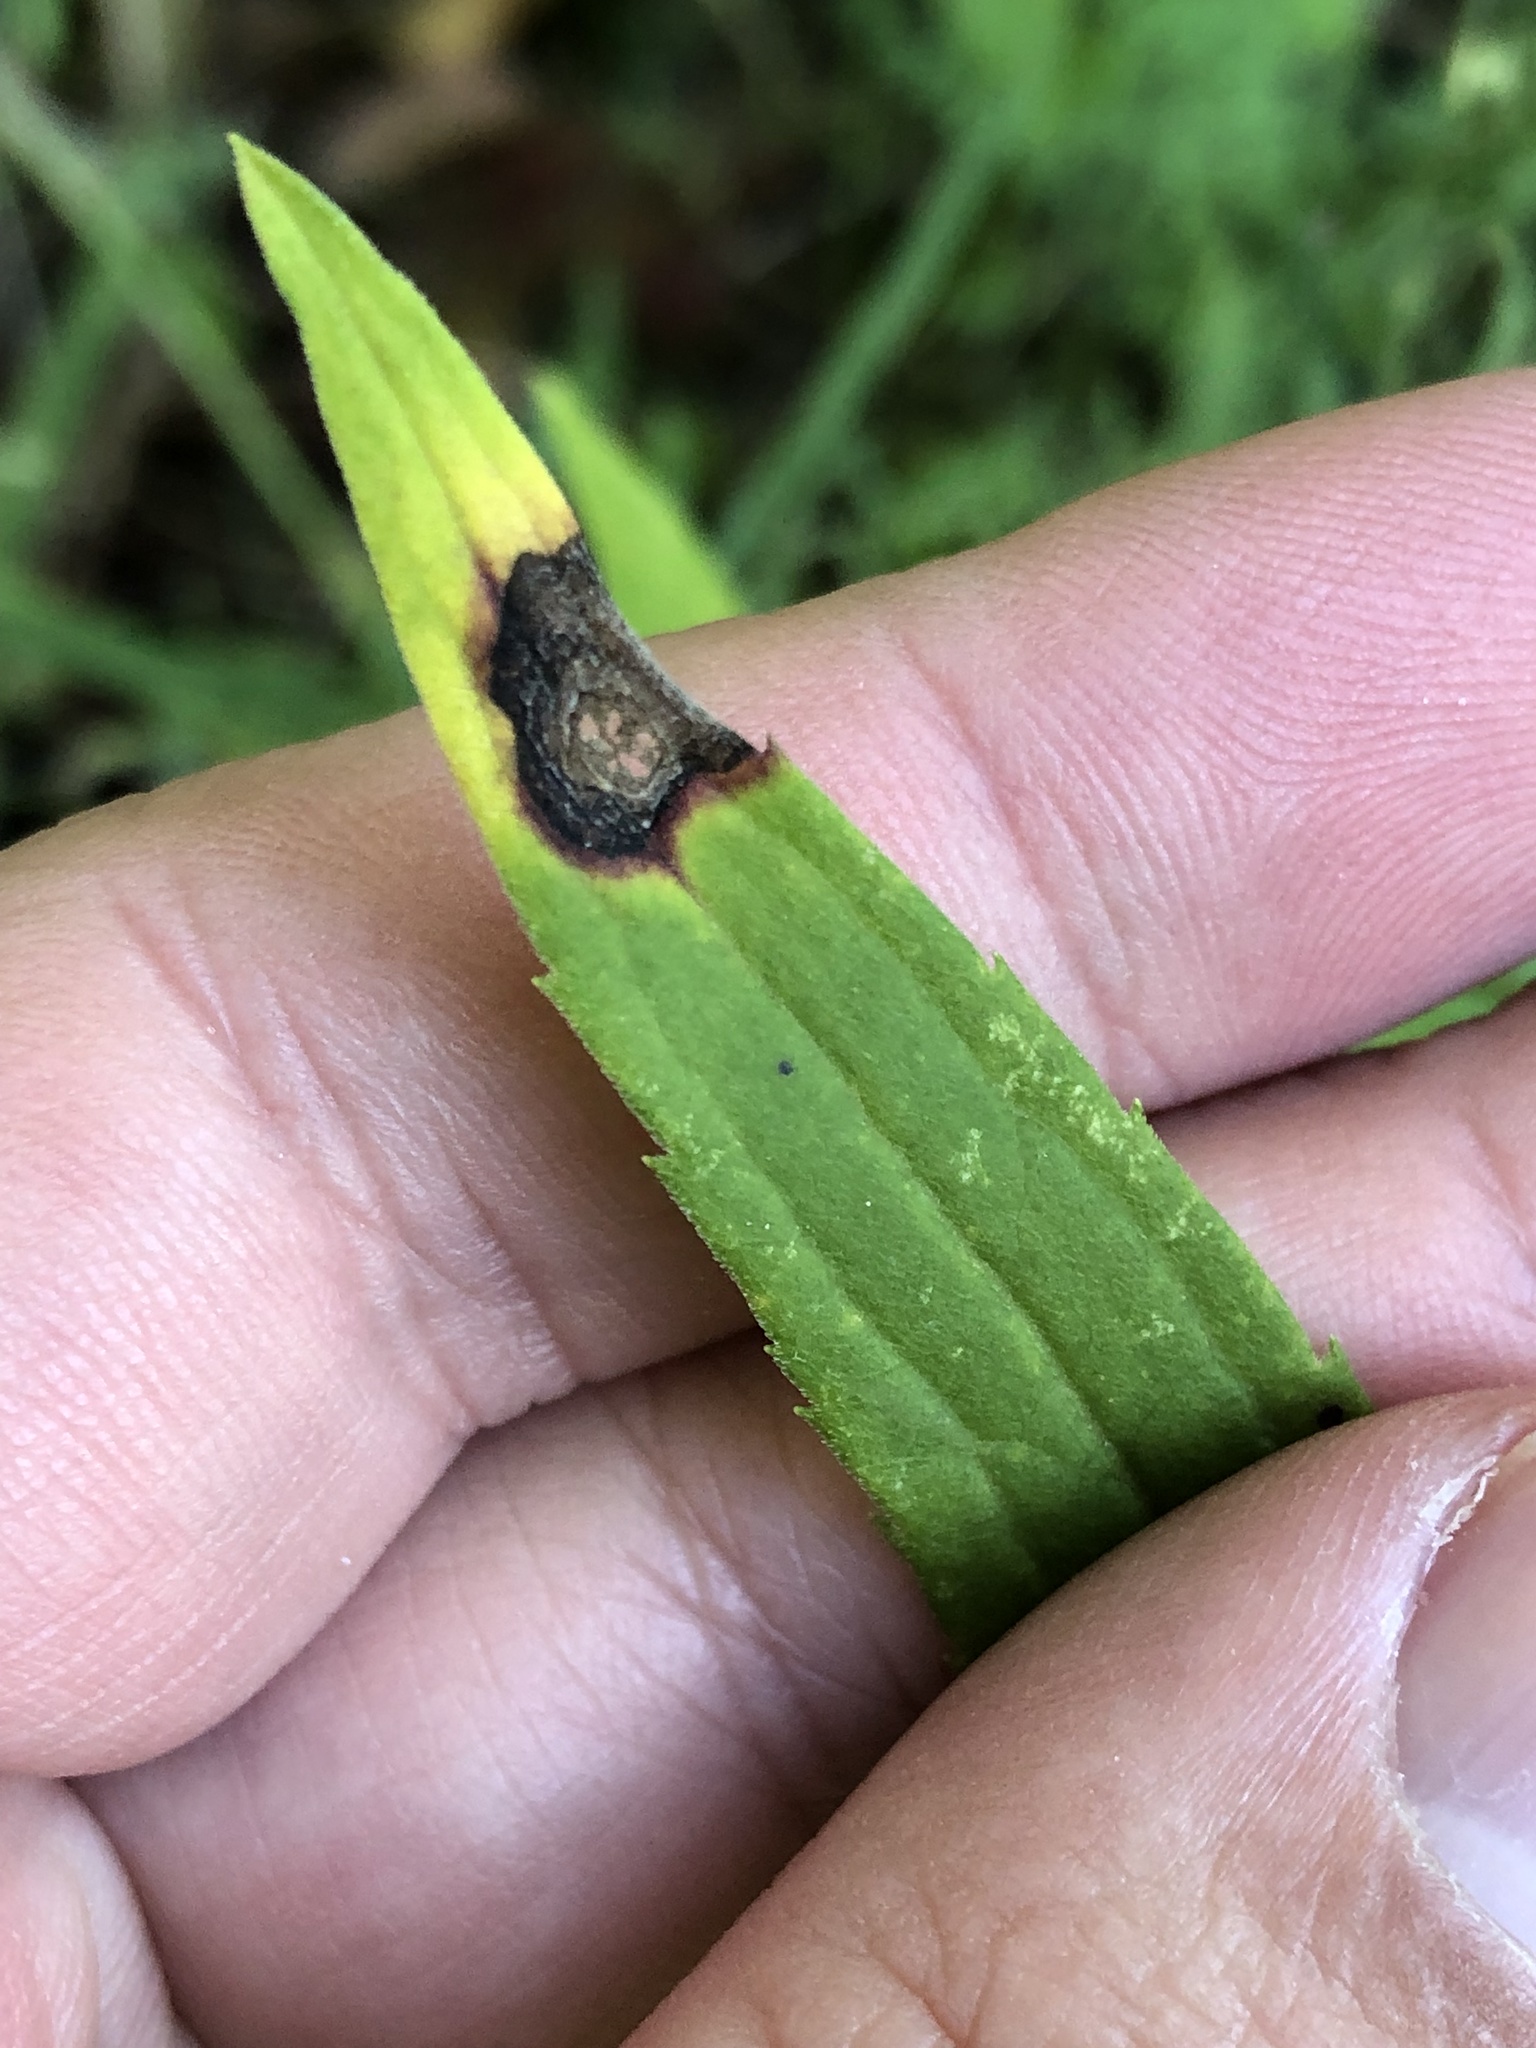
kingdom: Animalia
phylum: Arthropoda
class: Insecta
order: Diptera
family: Cecidomyiidae
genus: Asteromyia
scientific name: Asteromyia carbonifera
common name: Carbonifera goldenrod gall midge
